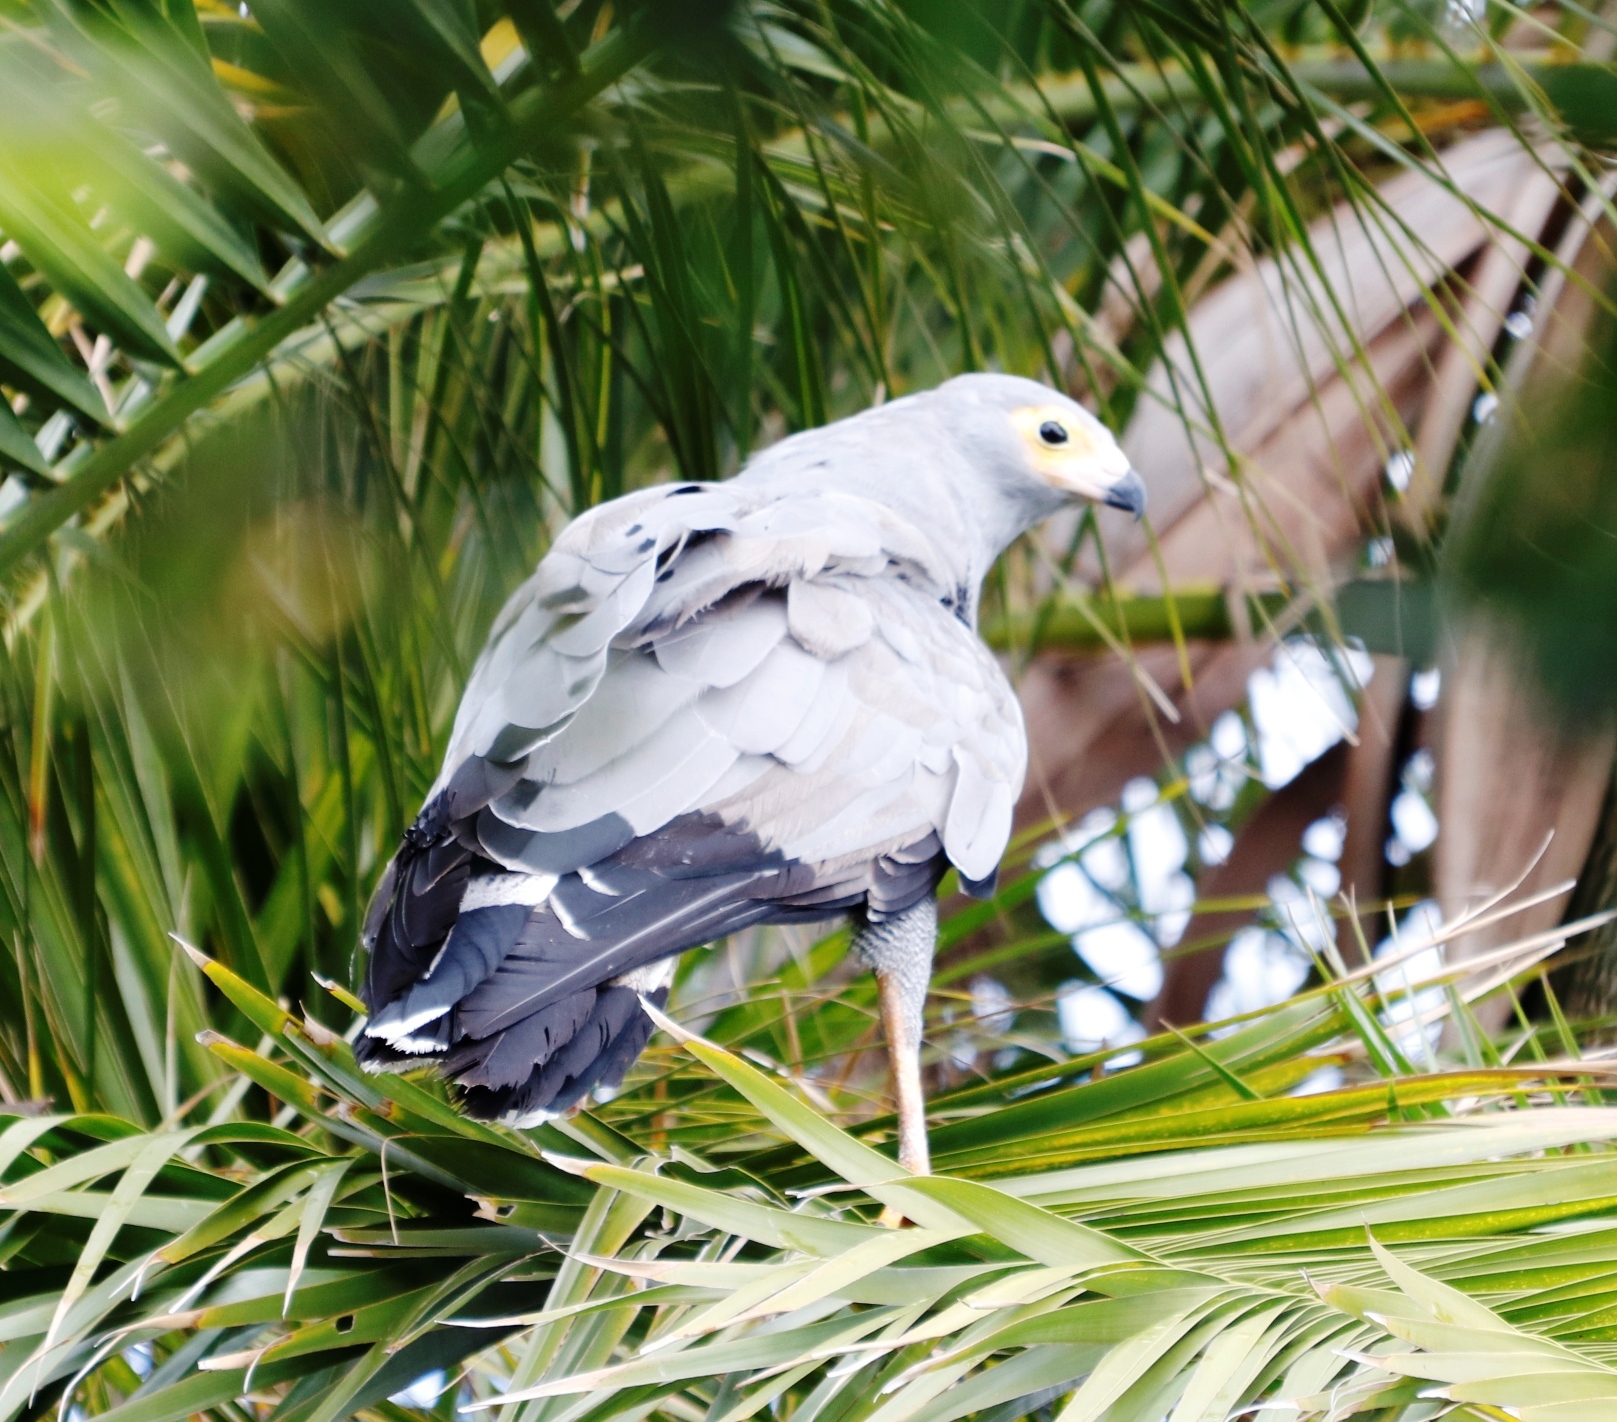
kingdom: Animalia
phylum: Chordata
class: Aves
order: Accipitriformes
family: Accipitridae
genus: Polyboroides
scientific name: Polyboroides typus
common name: African harrier-hawk
